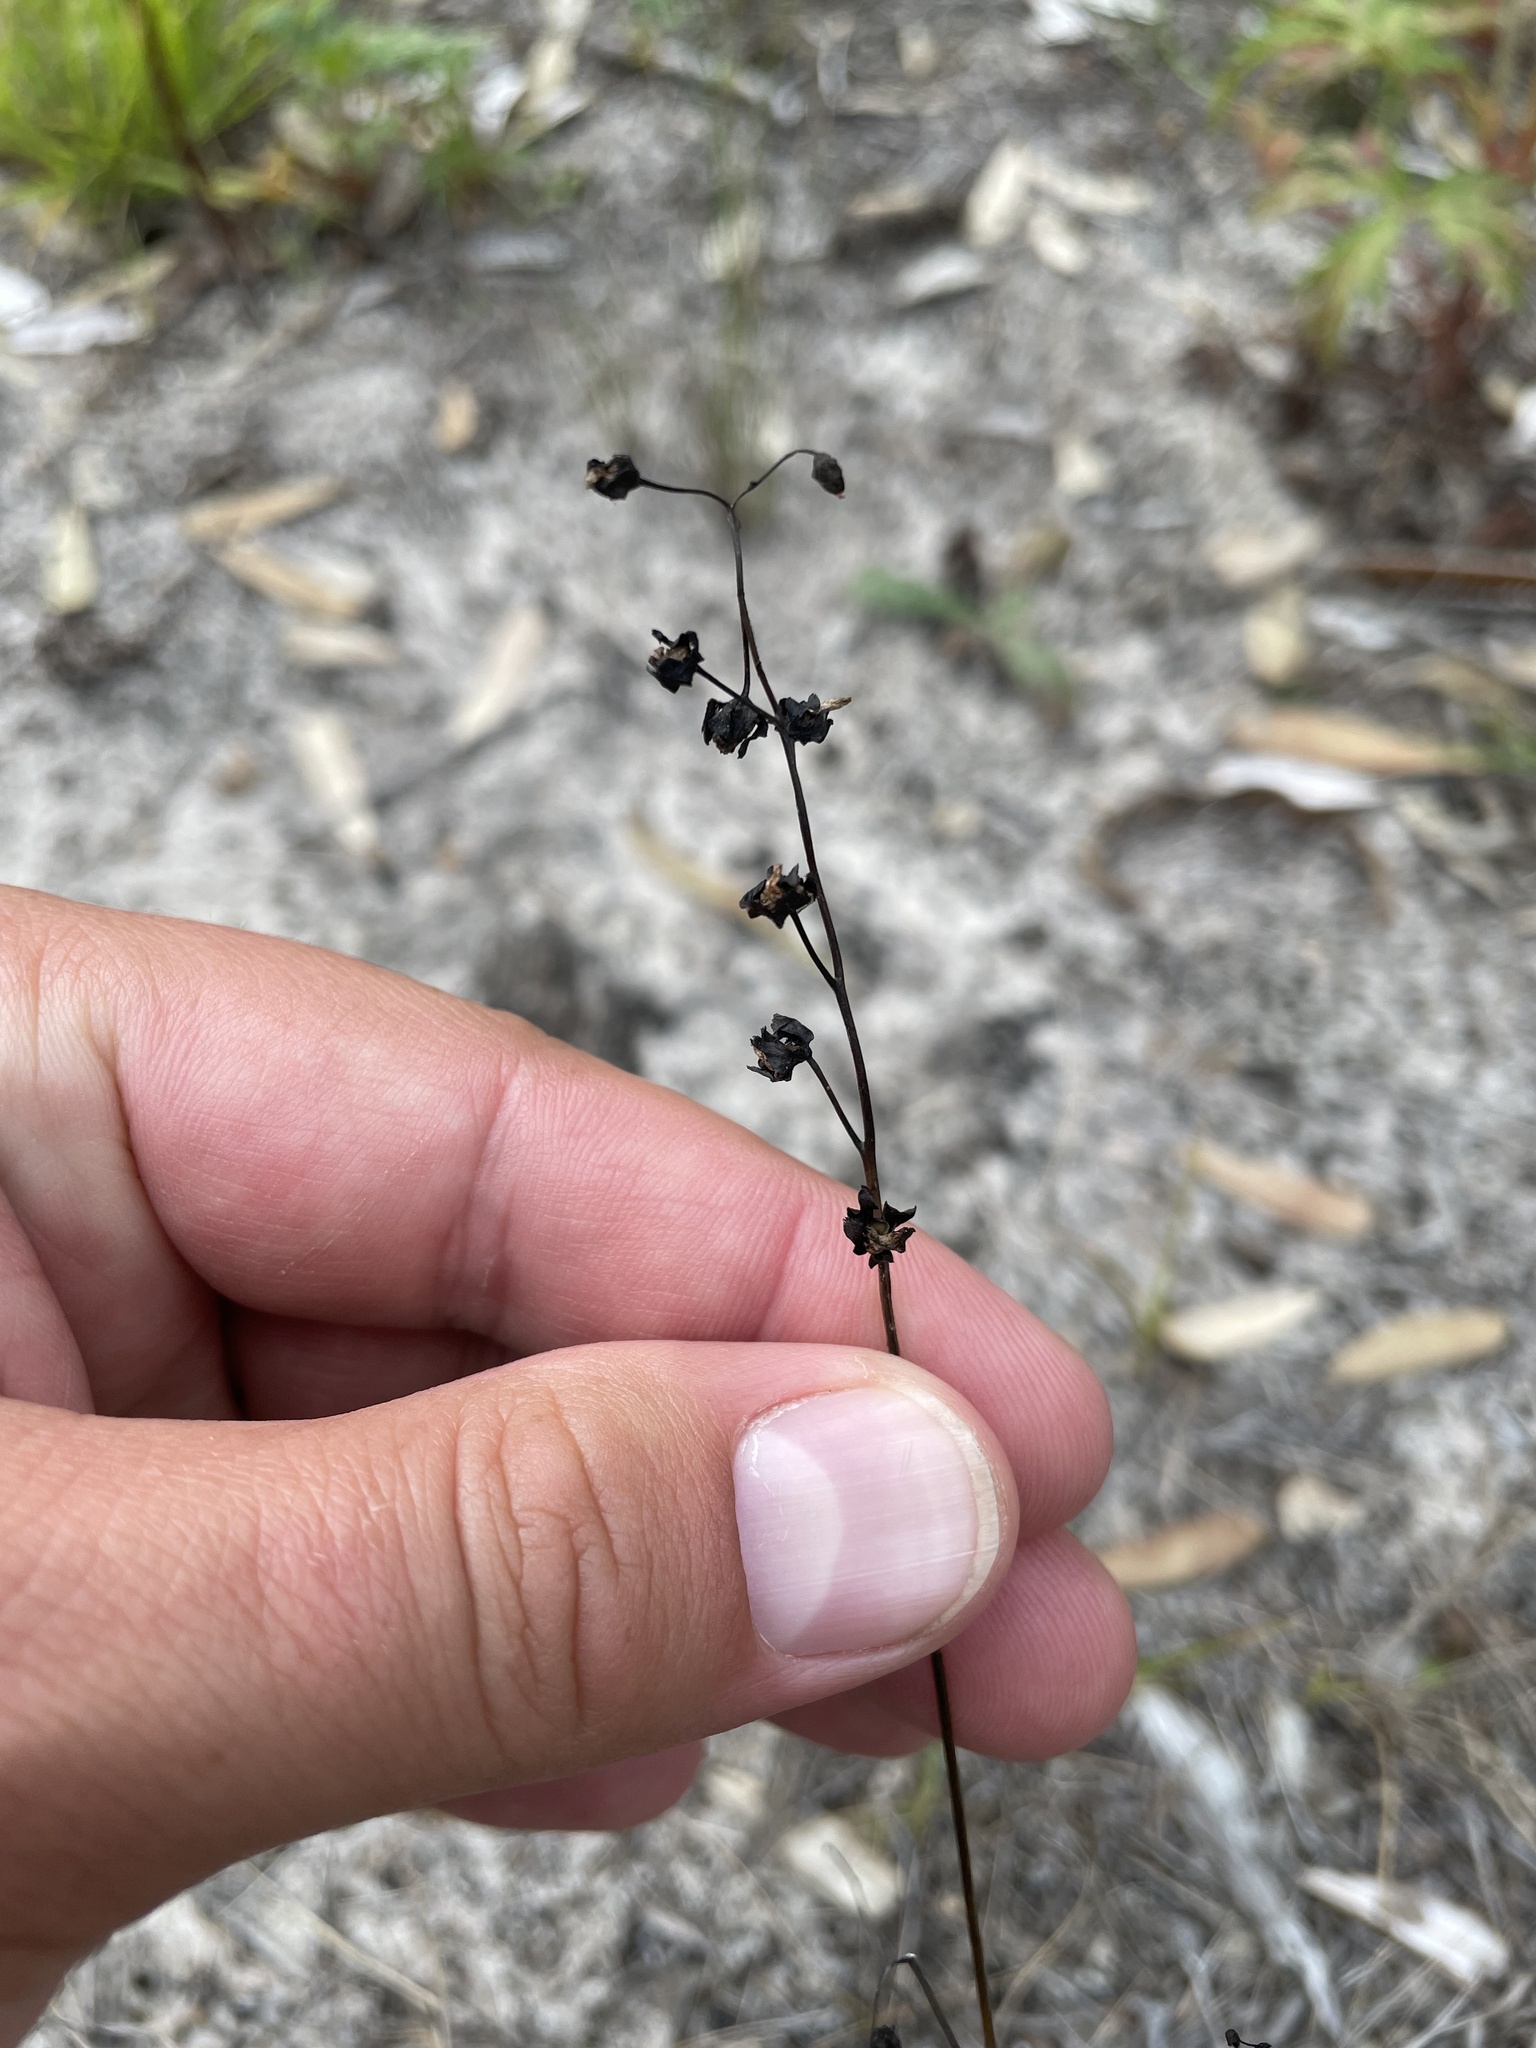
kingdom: Plantae
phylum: Tracheophyta
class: Magnoliopsida
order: Caryophyllales
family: Droseraceae
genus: Drosera
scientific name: Drosera peltata
